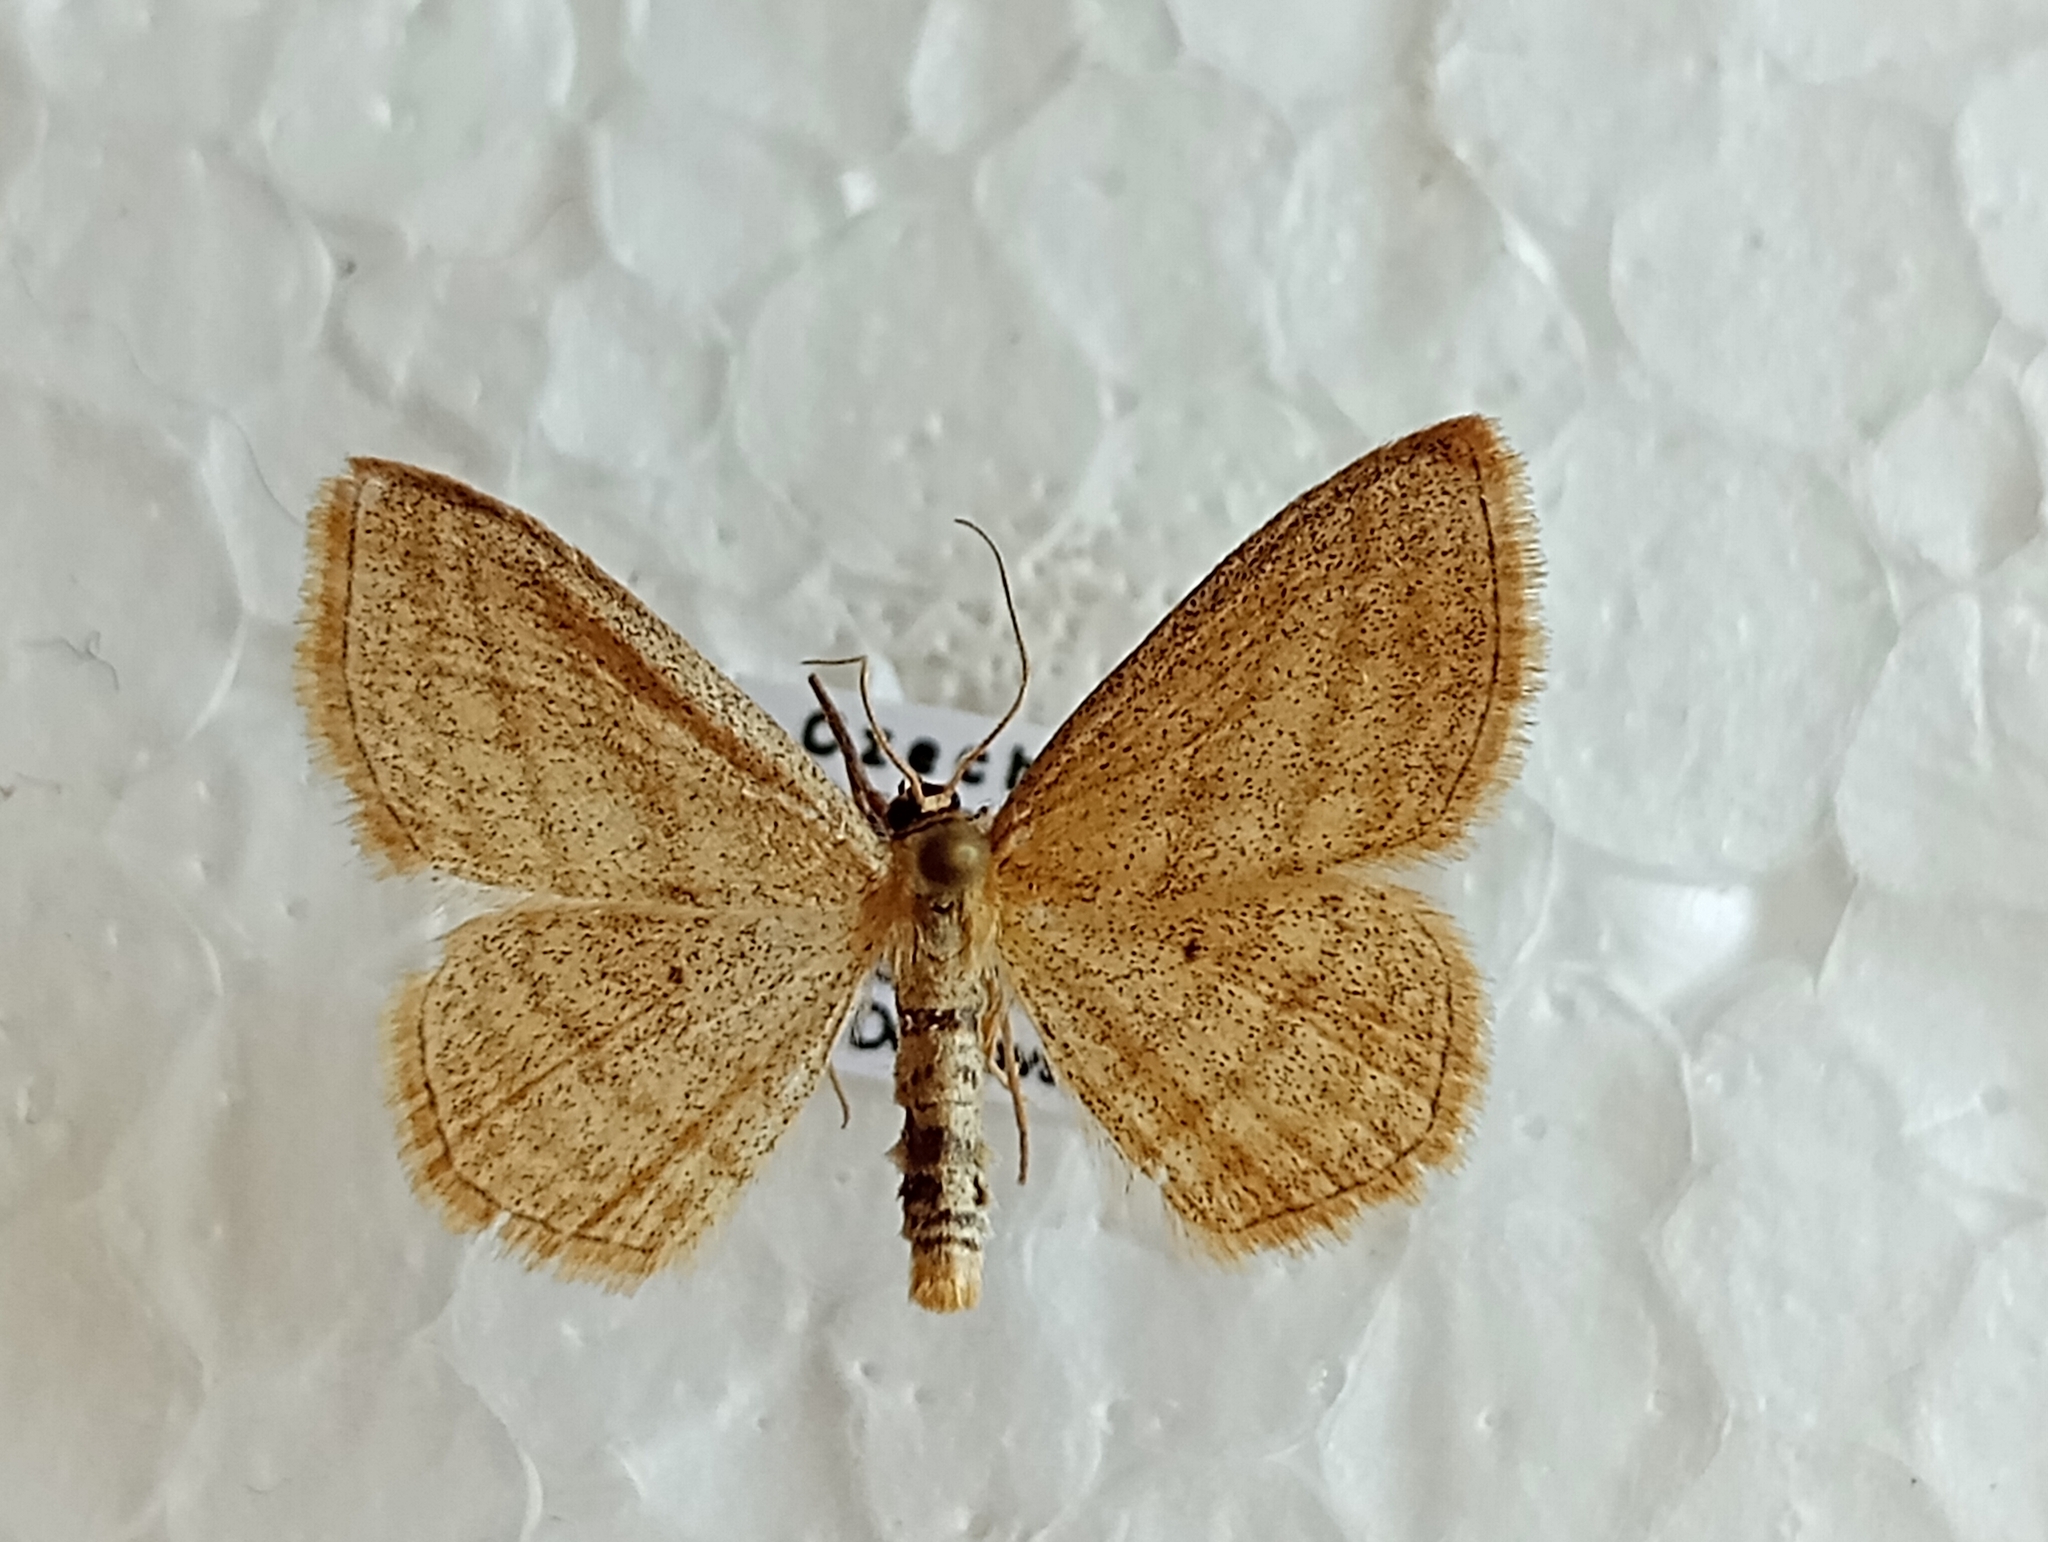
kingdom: Animalia
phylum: Arthropoda
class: Insecta
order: Lepidoptera
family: Geometridae
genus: Scopula
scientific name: Scopula virgulata
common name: Streaked wave
